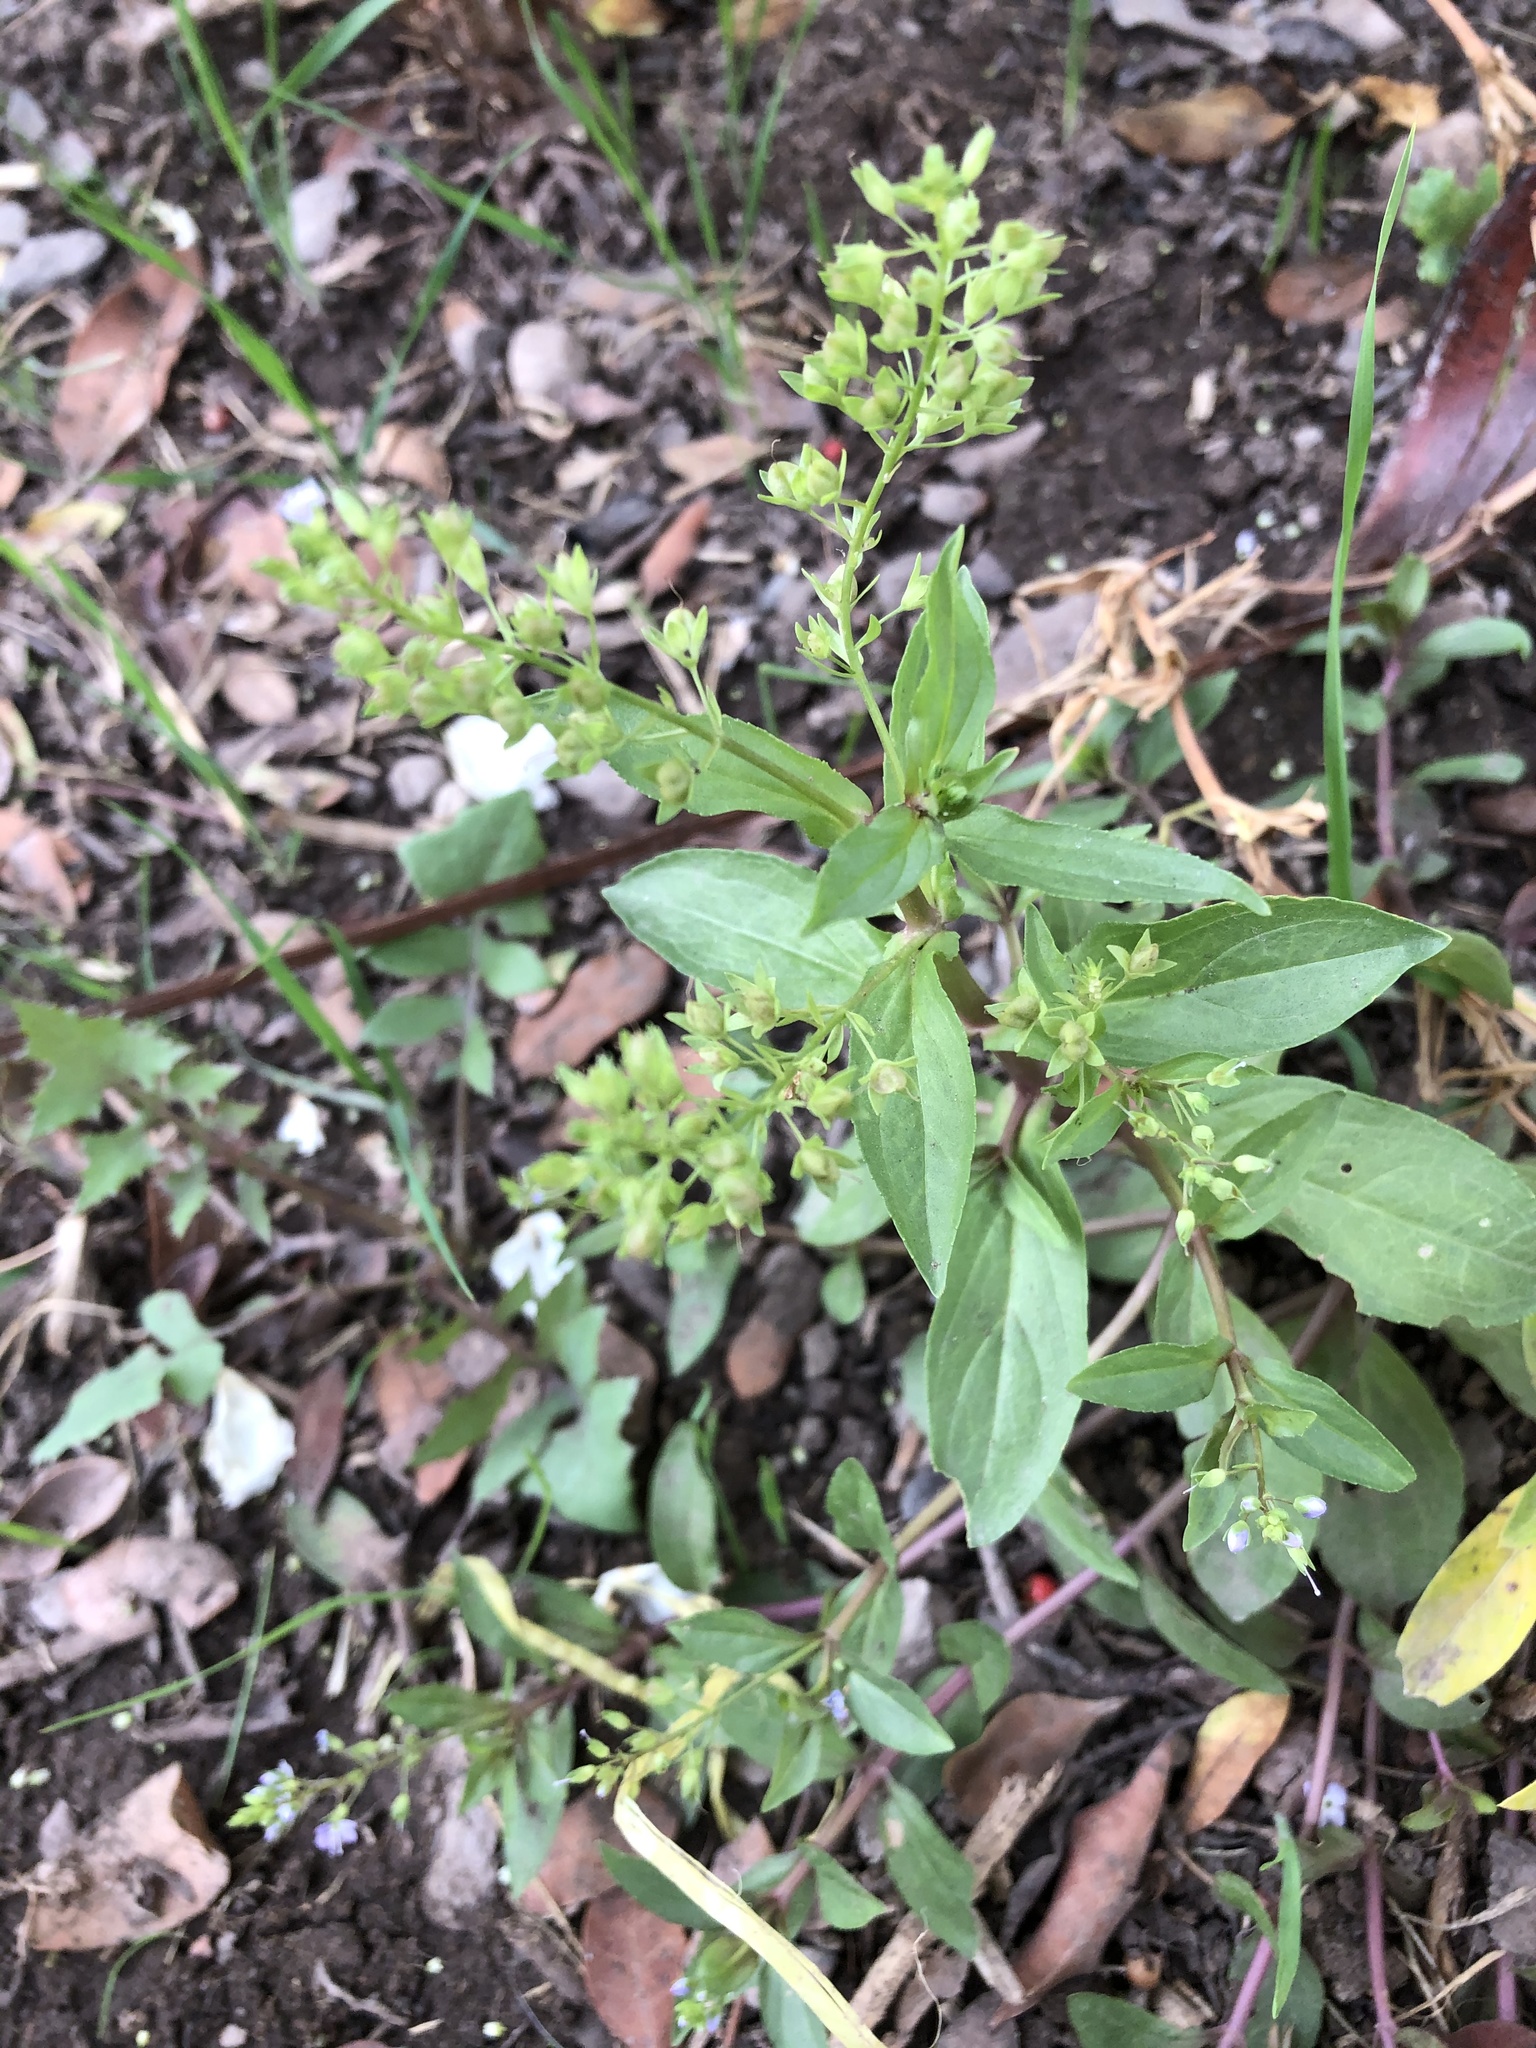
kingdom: Plantae
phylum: Tracheophyta
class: Magnoliopsida
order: Lamiales
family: Plantaginaceae
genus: Veronica
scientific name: Veronica anagallis-aquatica
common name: Water speedwell
